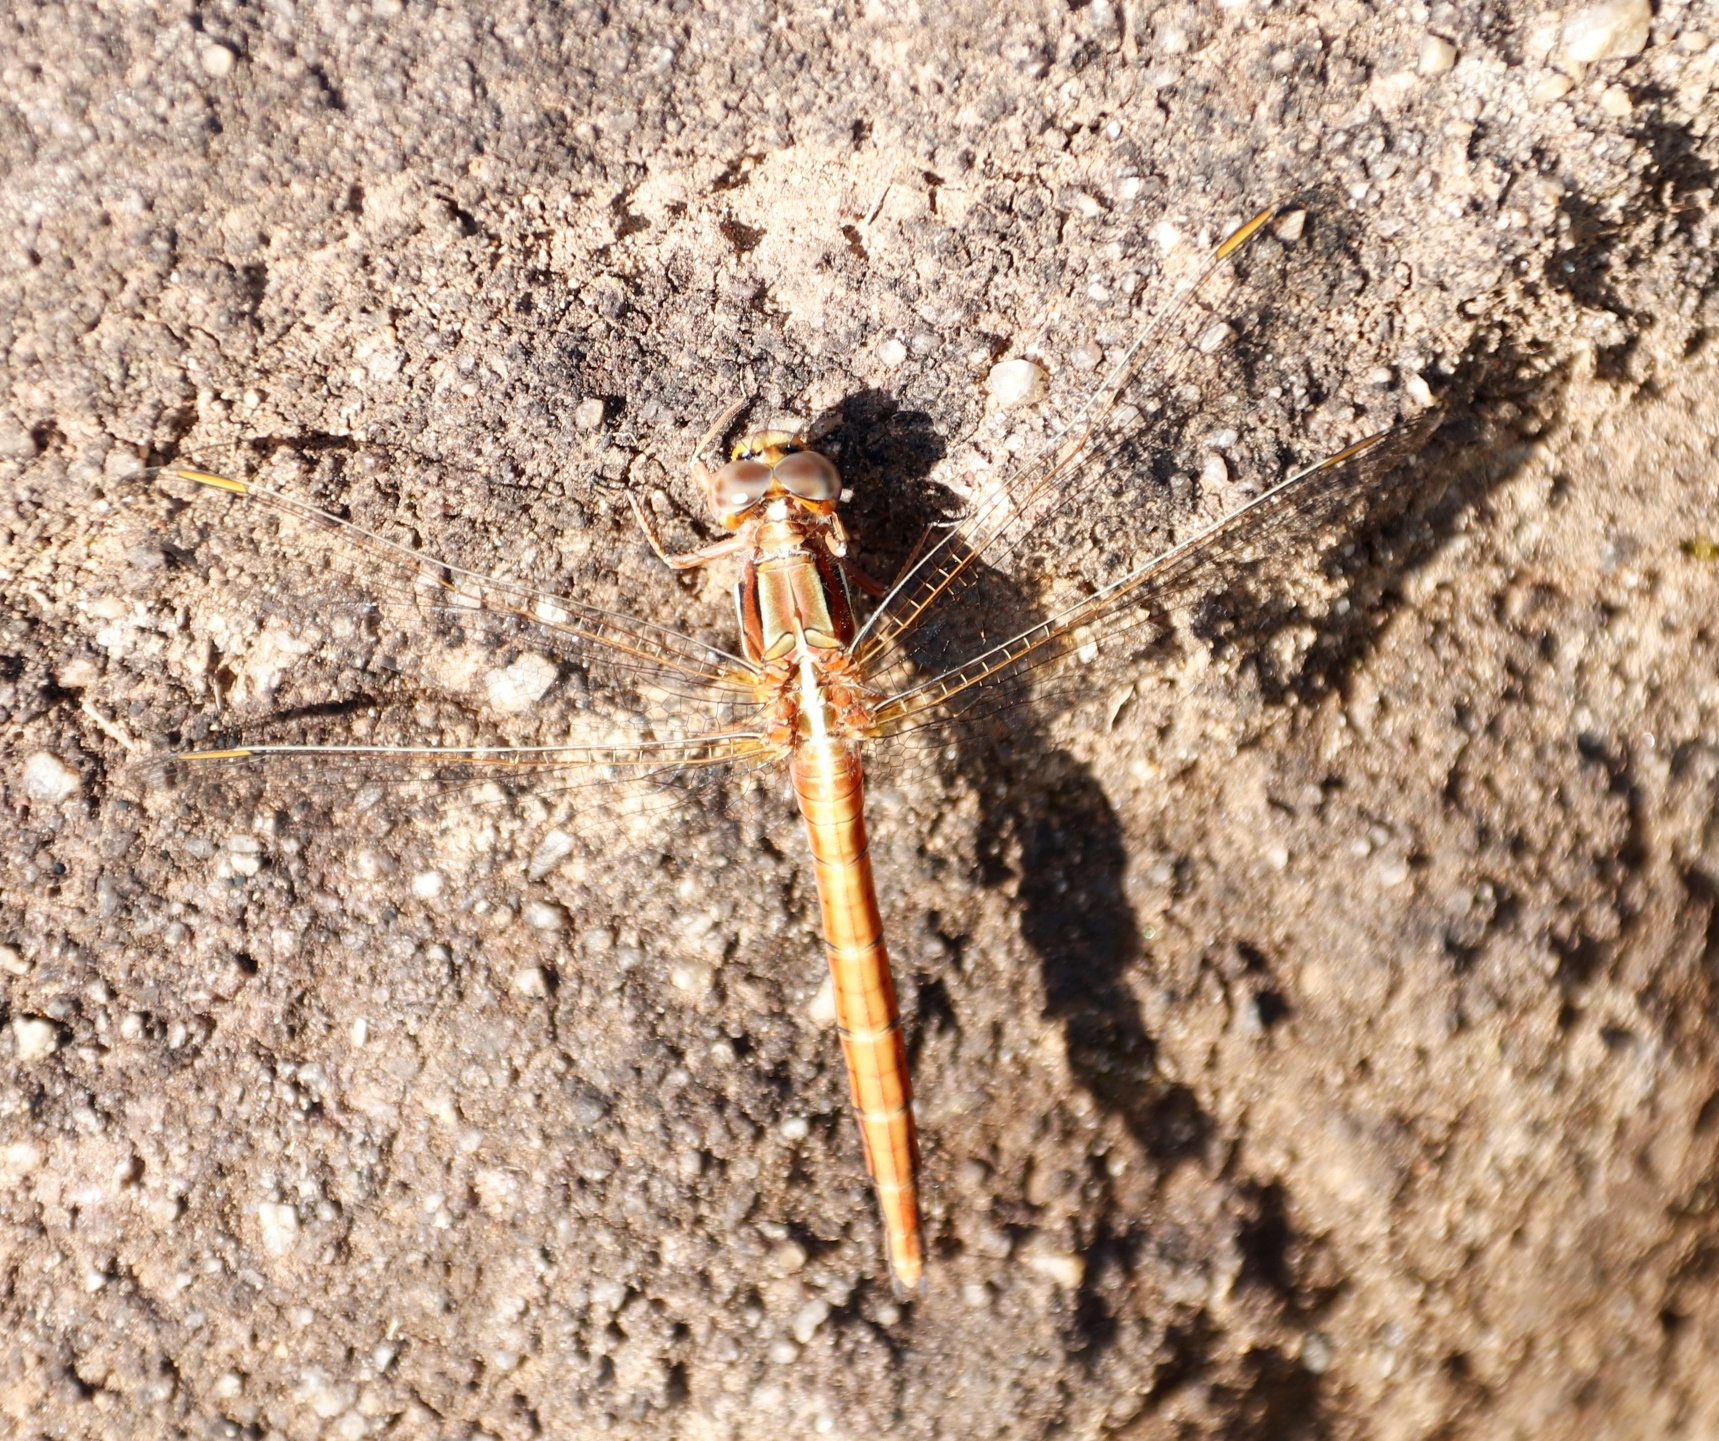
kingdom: Animalia
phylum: Arthropoda
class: Insecta
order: Odonata
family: Libellulidae
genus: Orthetrum
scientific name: Orthetrum caffrum
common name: Two-striped skimmer
